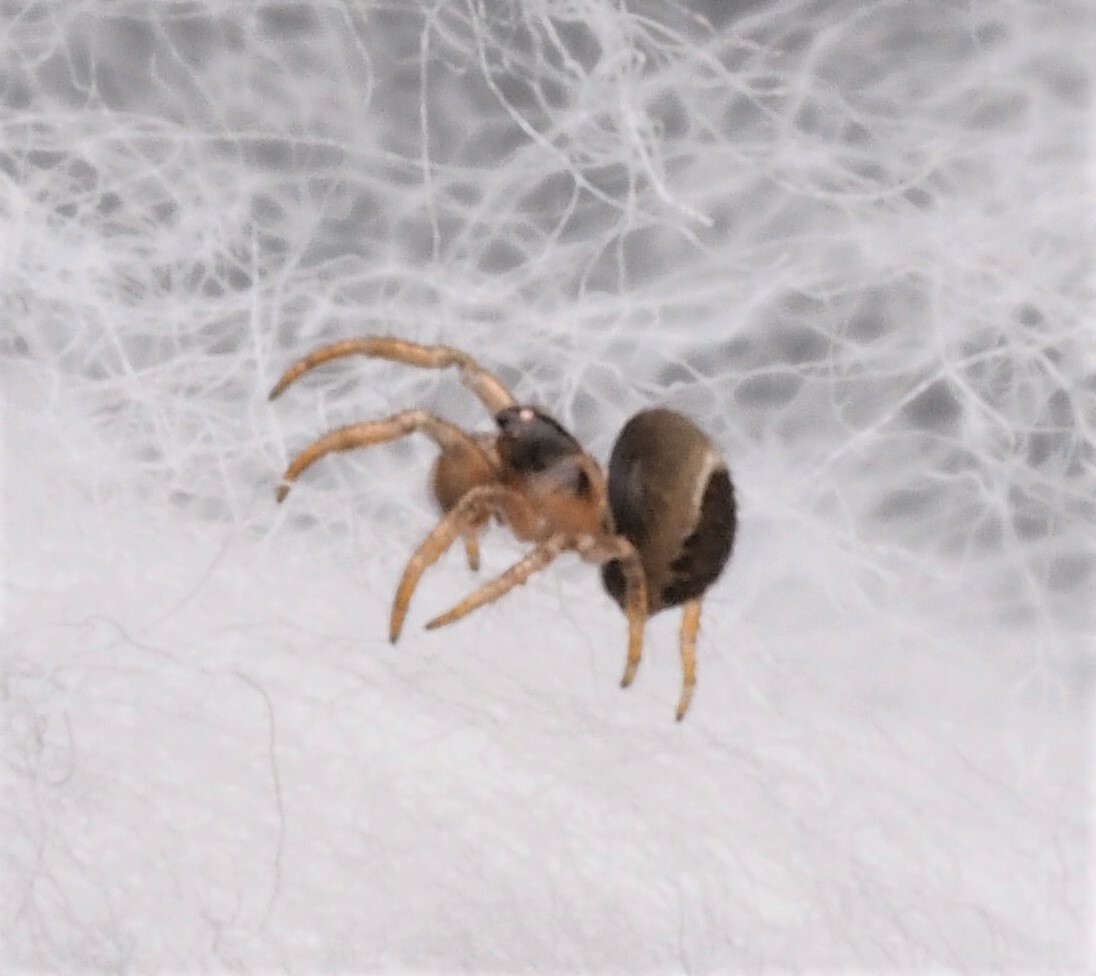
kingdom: Animalia
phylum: Arthropoda
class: Arachnida
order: Araneae
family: Theridiosomatidae
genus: Theridiosoma
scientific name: Theridiosoma circuloargenteum
